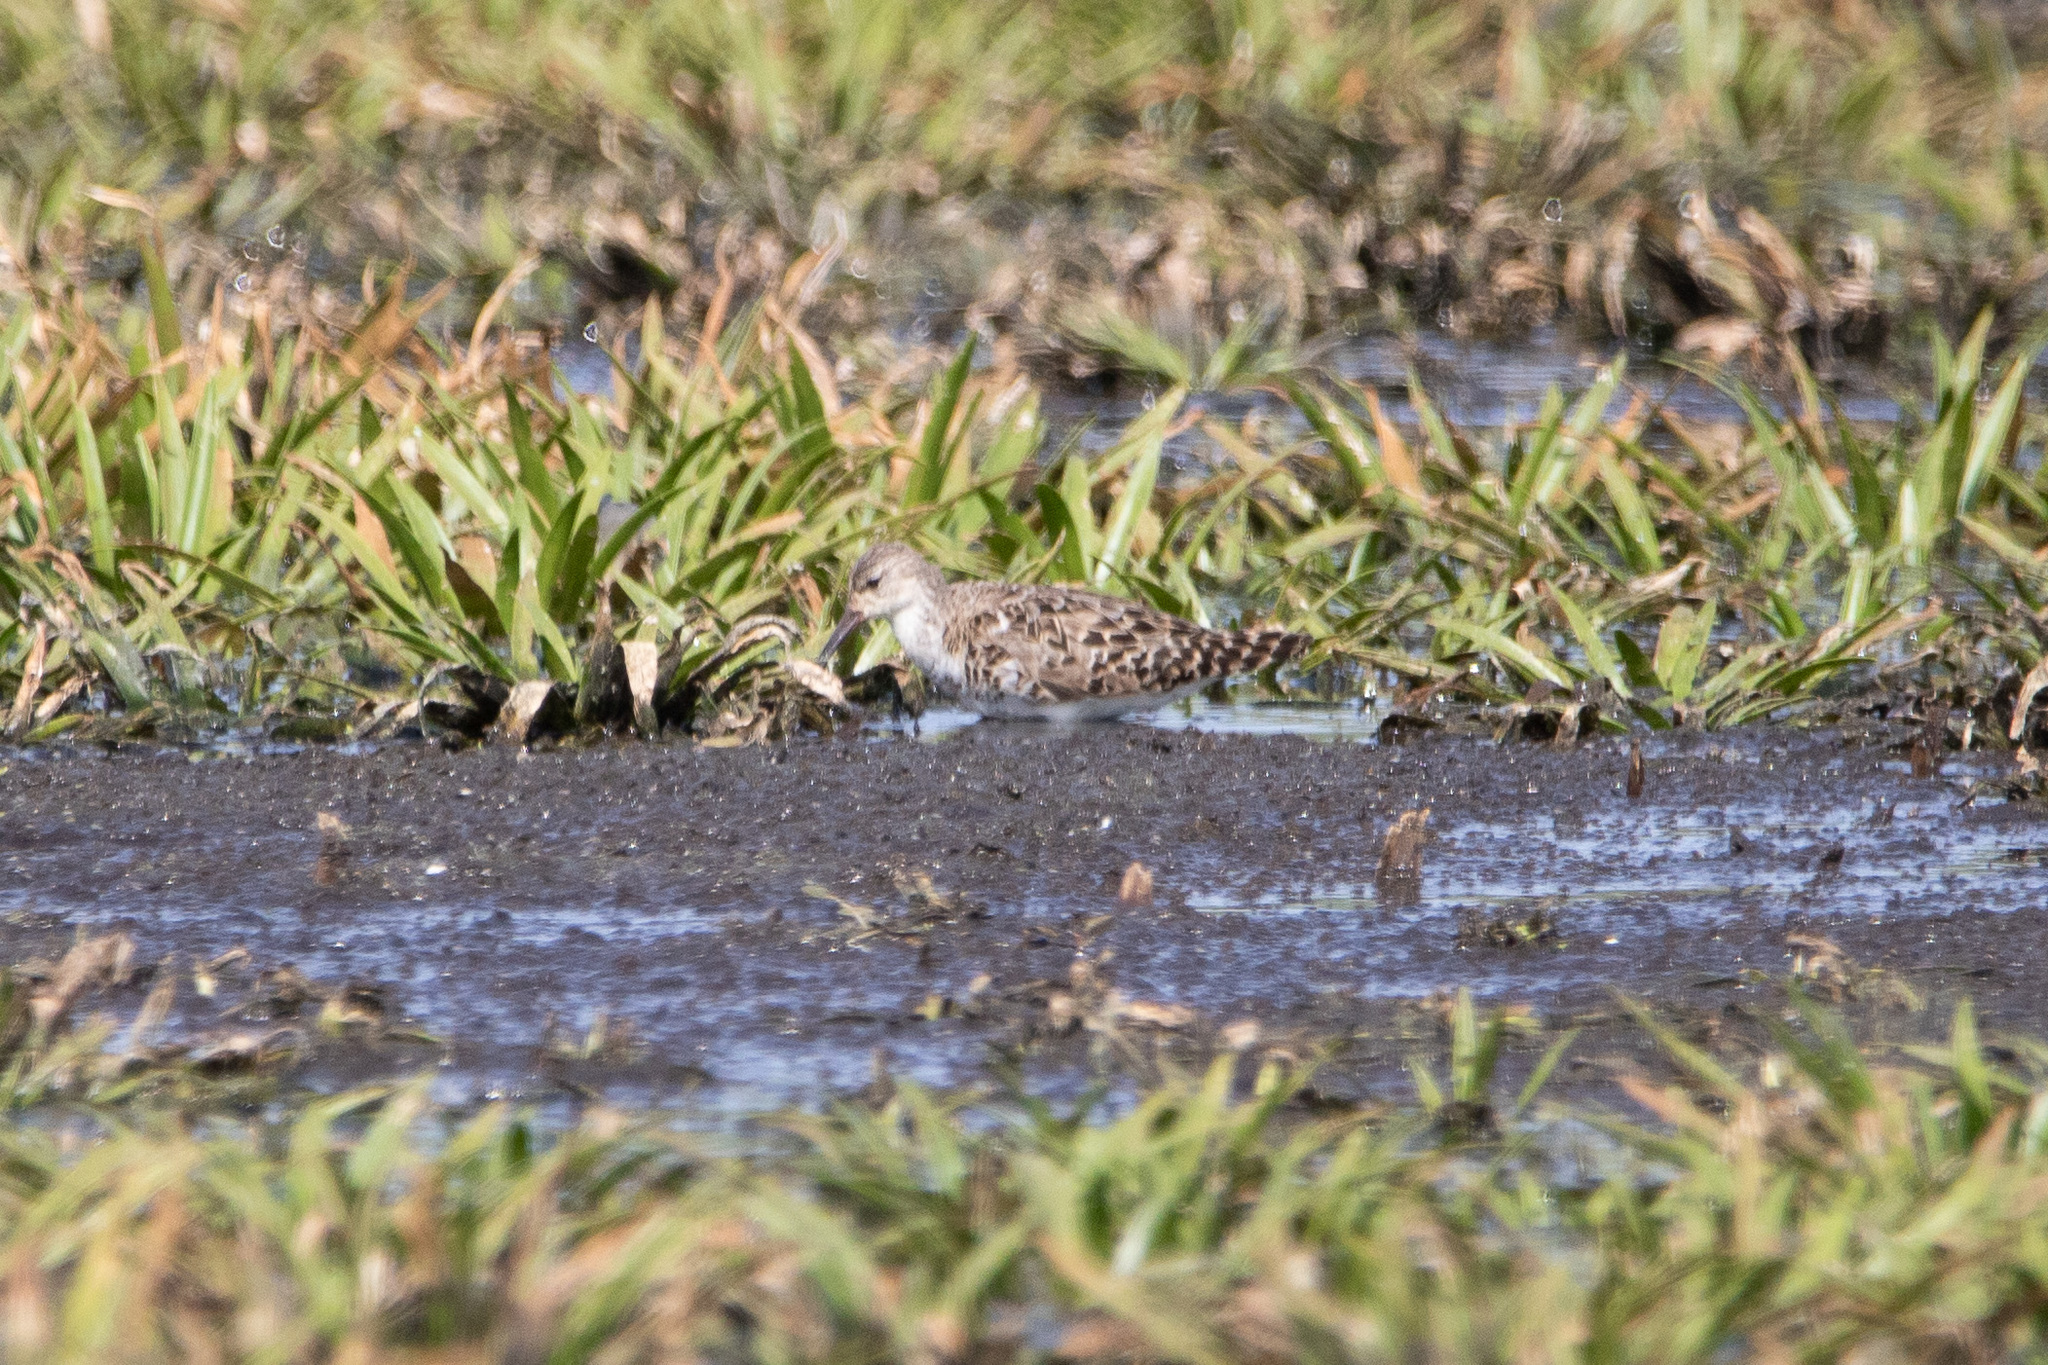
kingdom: Animalia
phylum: Chordata
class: Aves
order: Charadriiformes
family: Scolopacidae
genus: Calidris
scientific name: Calidris pugnax
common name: Ruff
